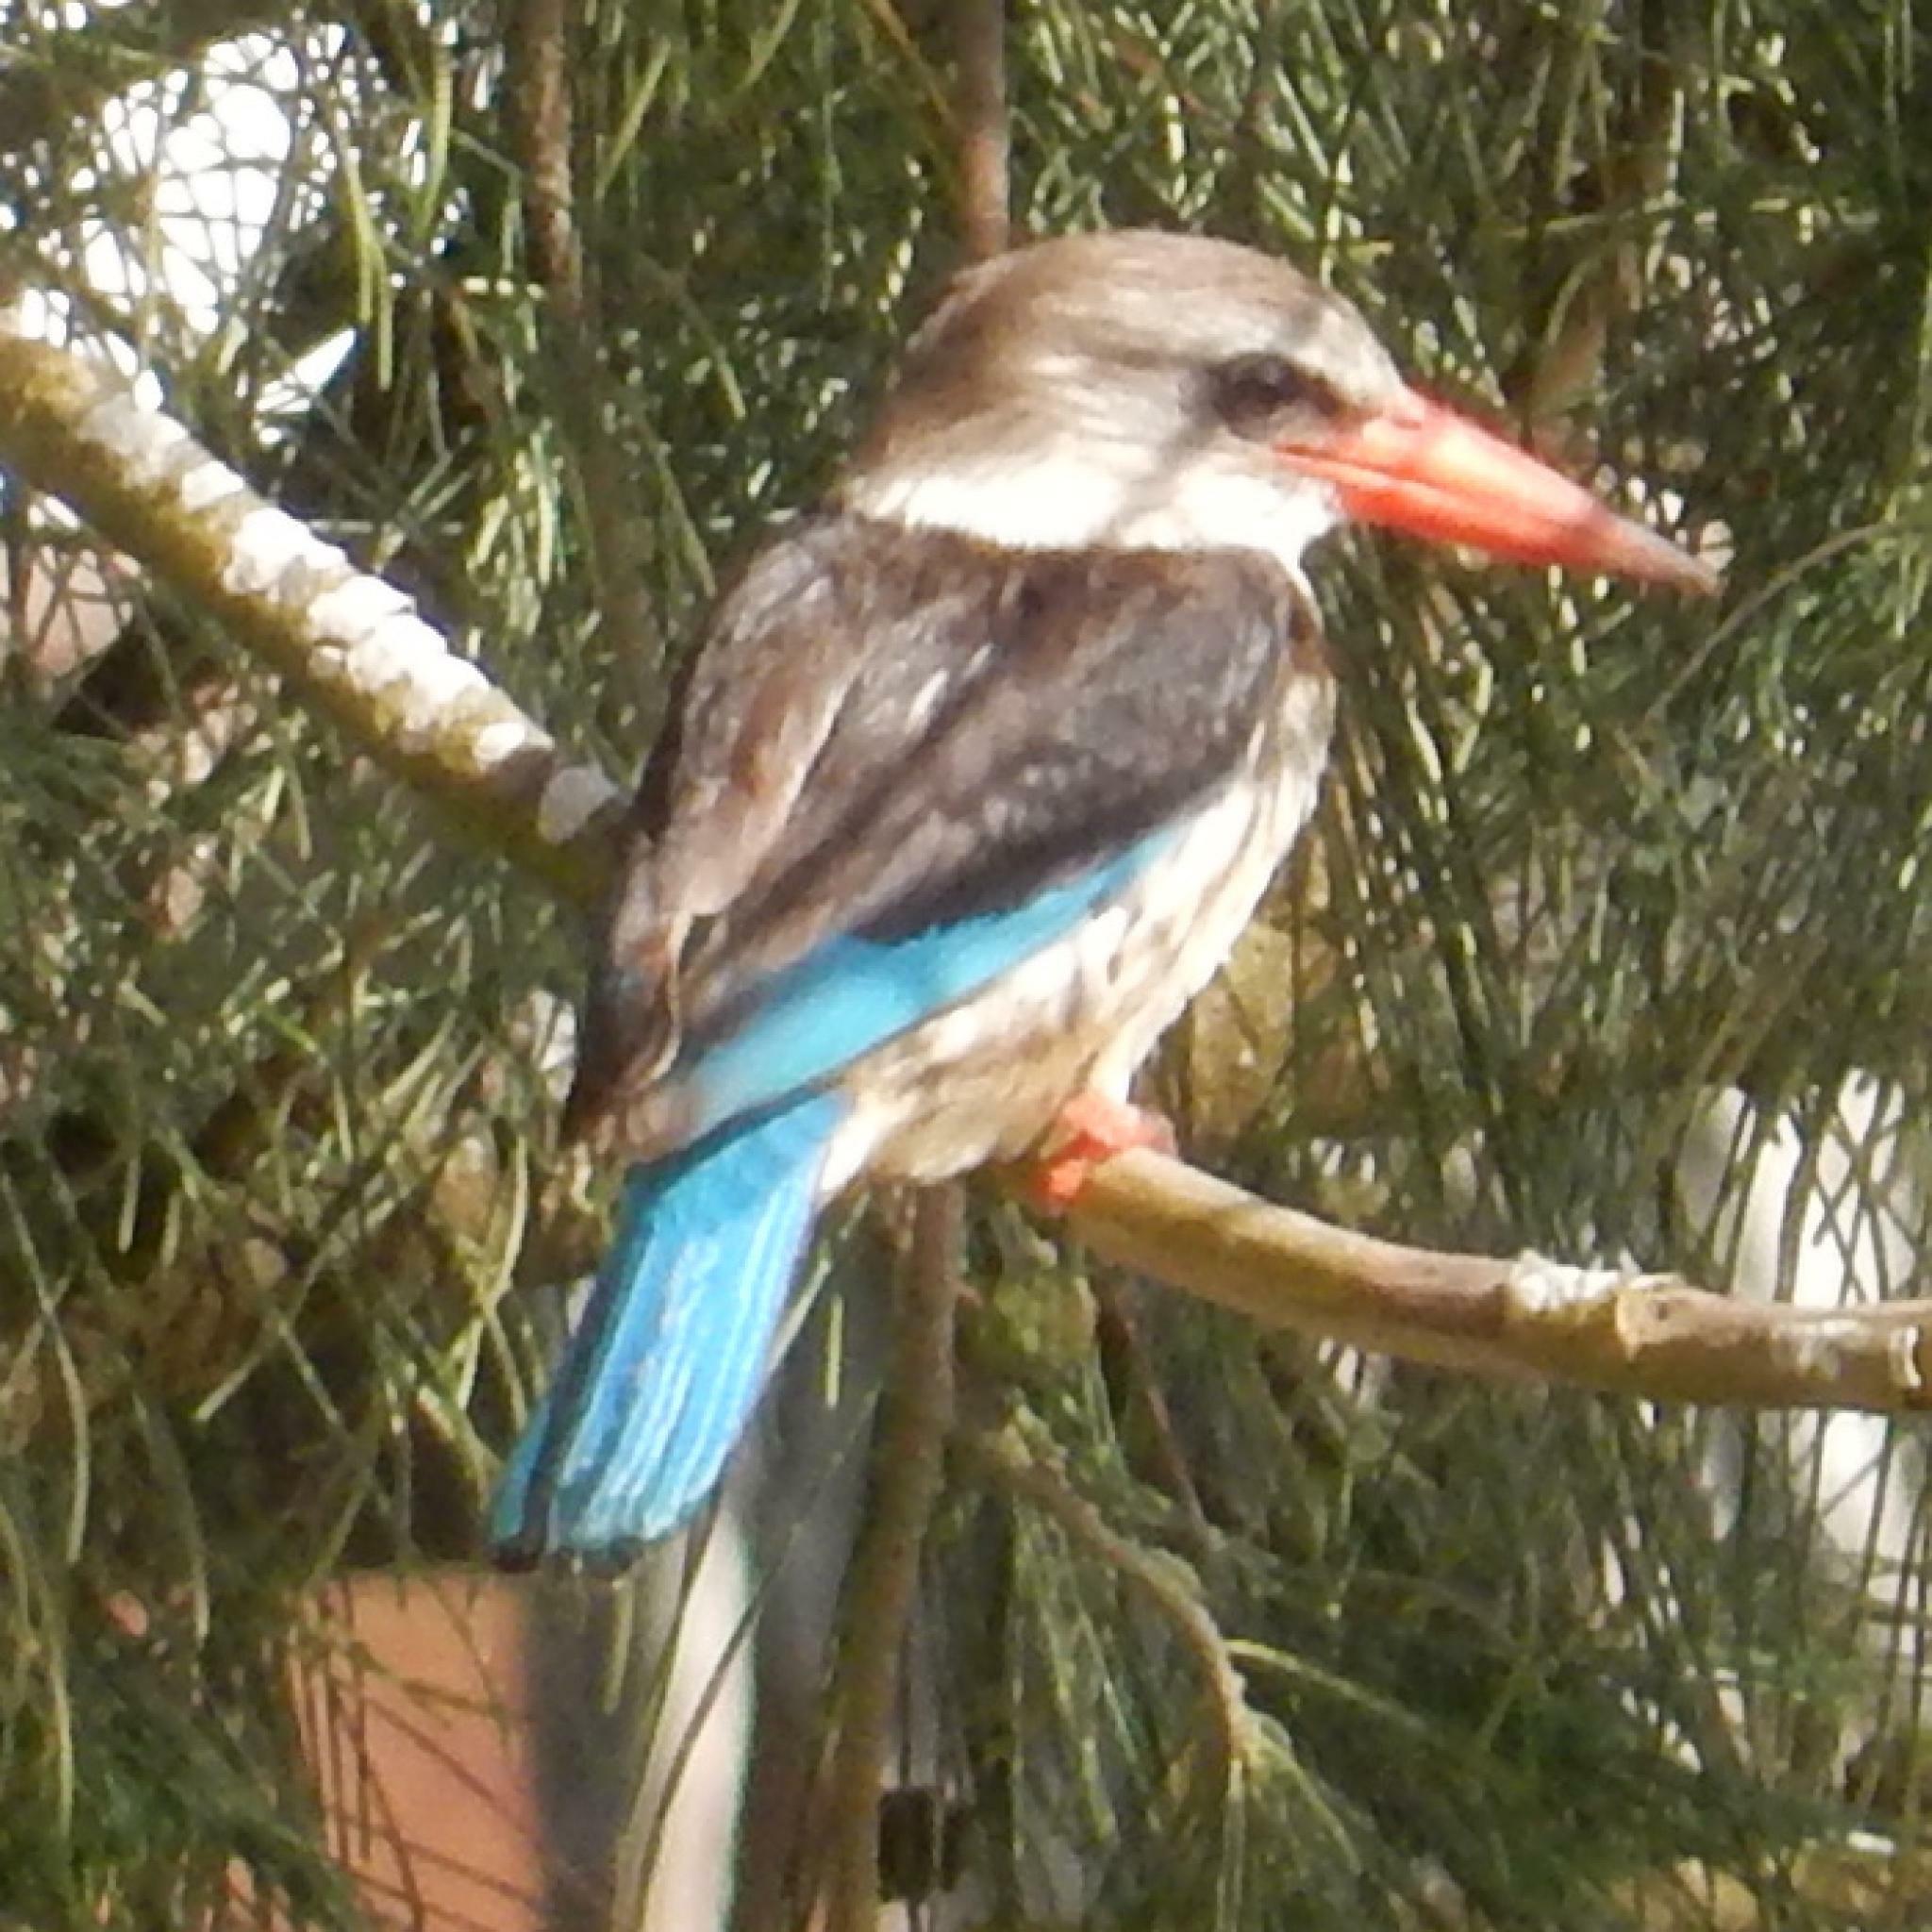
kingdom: Animalia
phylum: Chordata
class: Aves
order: Coraciiformes
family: Alcedinidae
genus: Halcyon
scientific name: Halcyon albiventris
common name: Brown-hooded kingfisher
